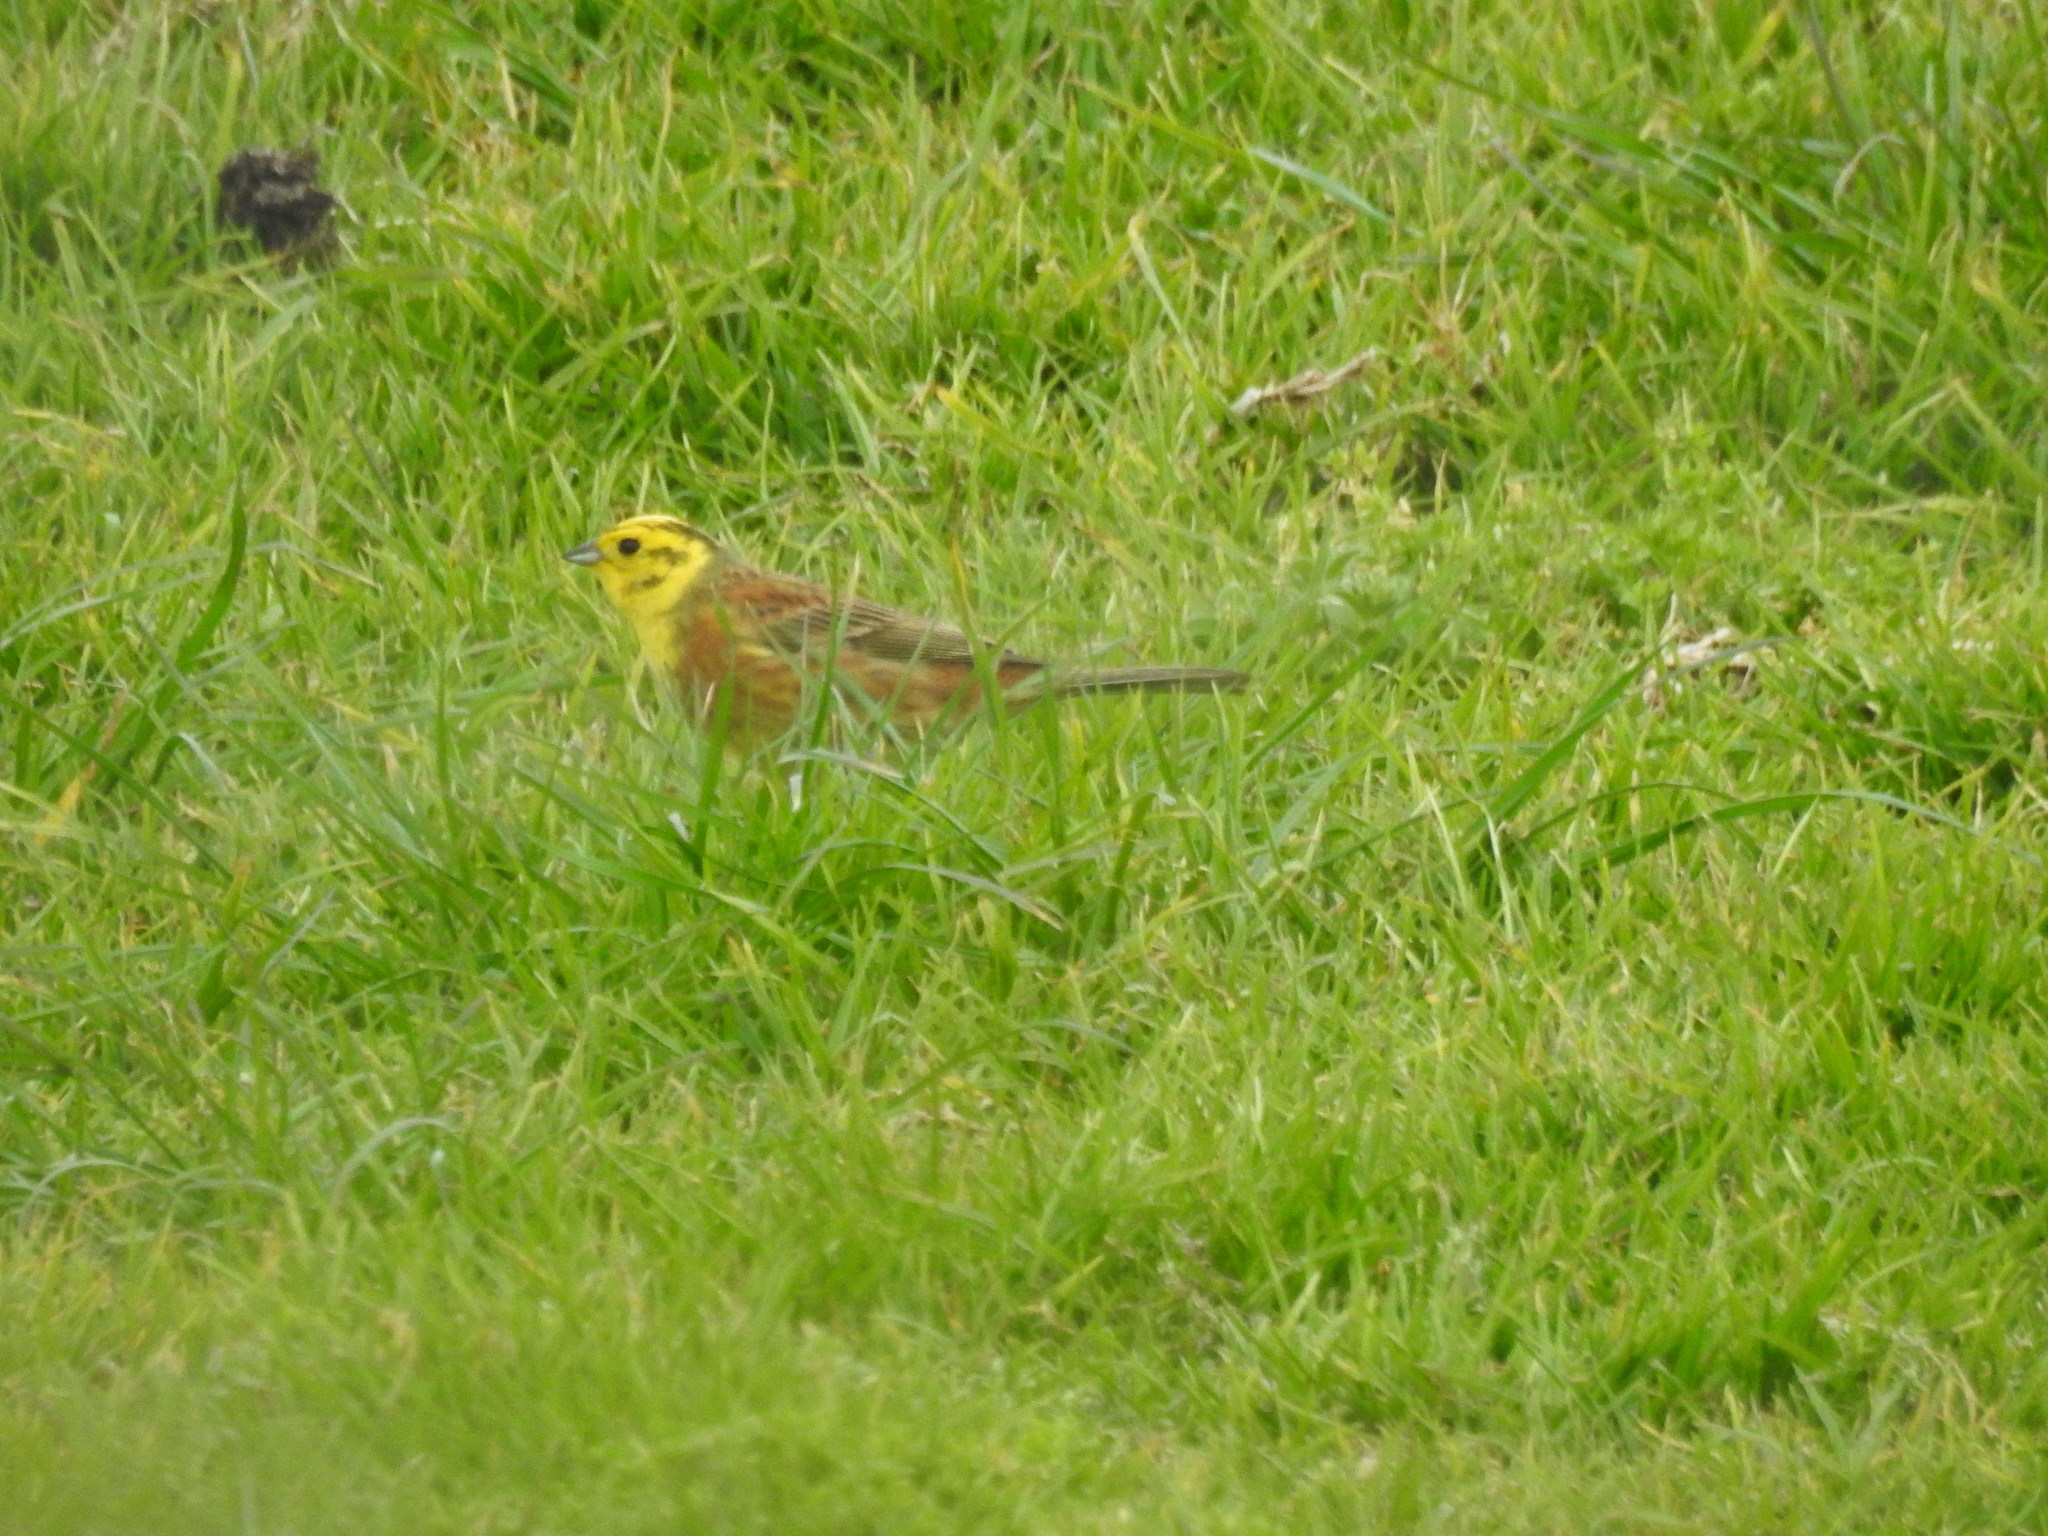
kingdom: Animalia
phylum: Chordata
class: Aves
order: Passeriformes
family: Emberizidae
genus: Emberiza
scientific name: Emberiza citrinella
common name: Yellowhammer
